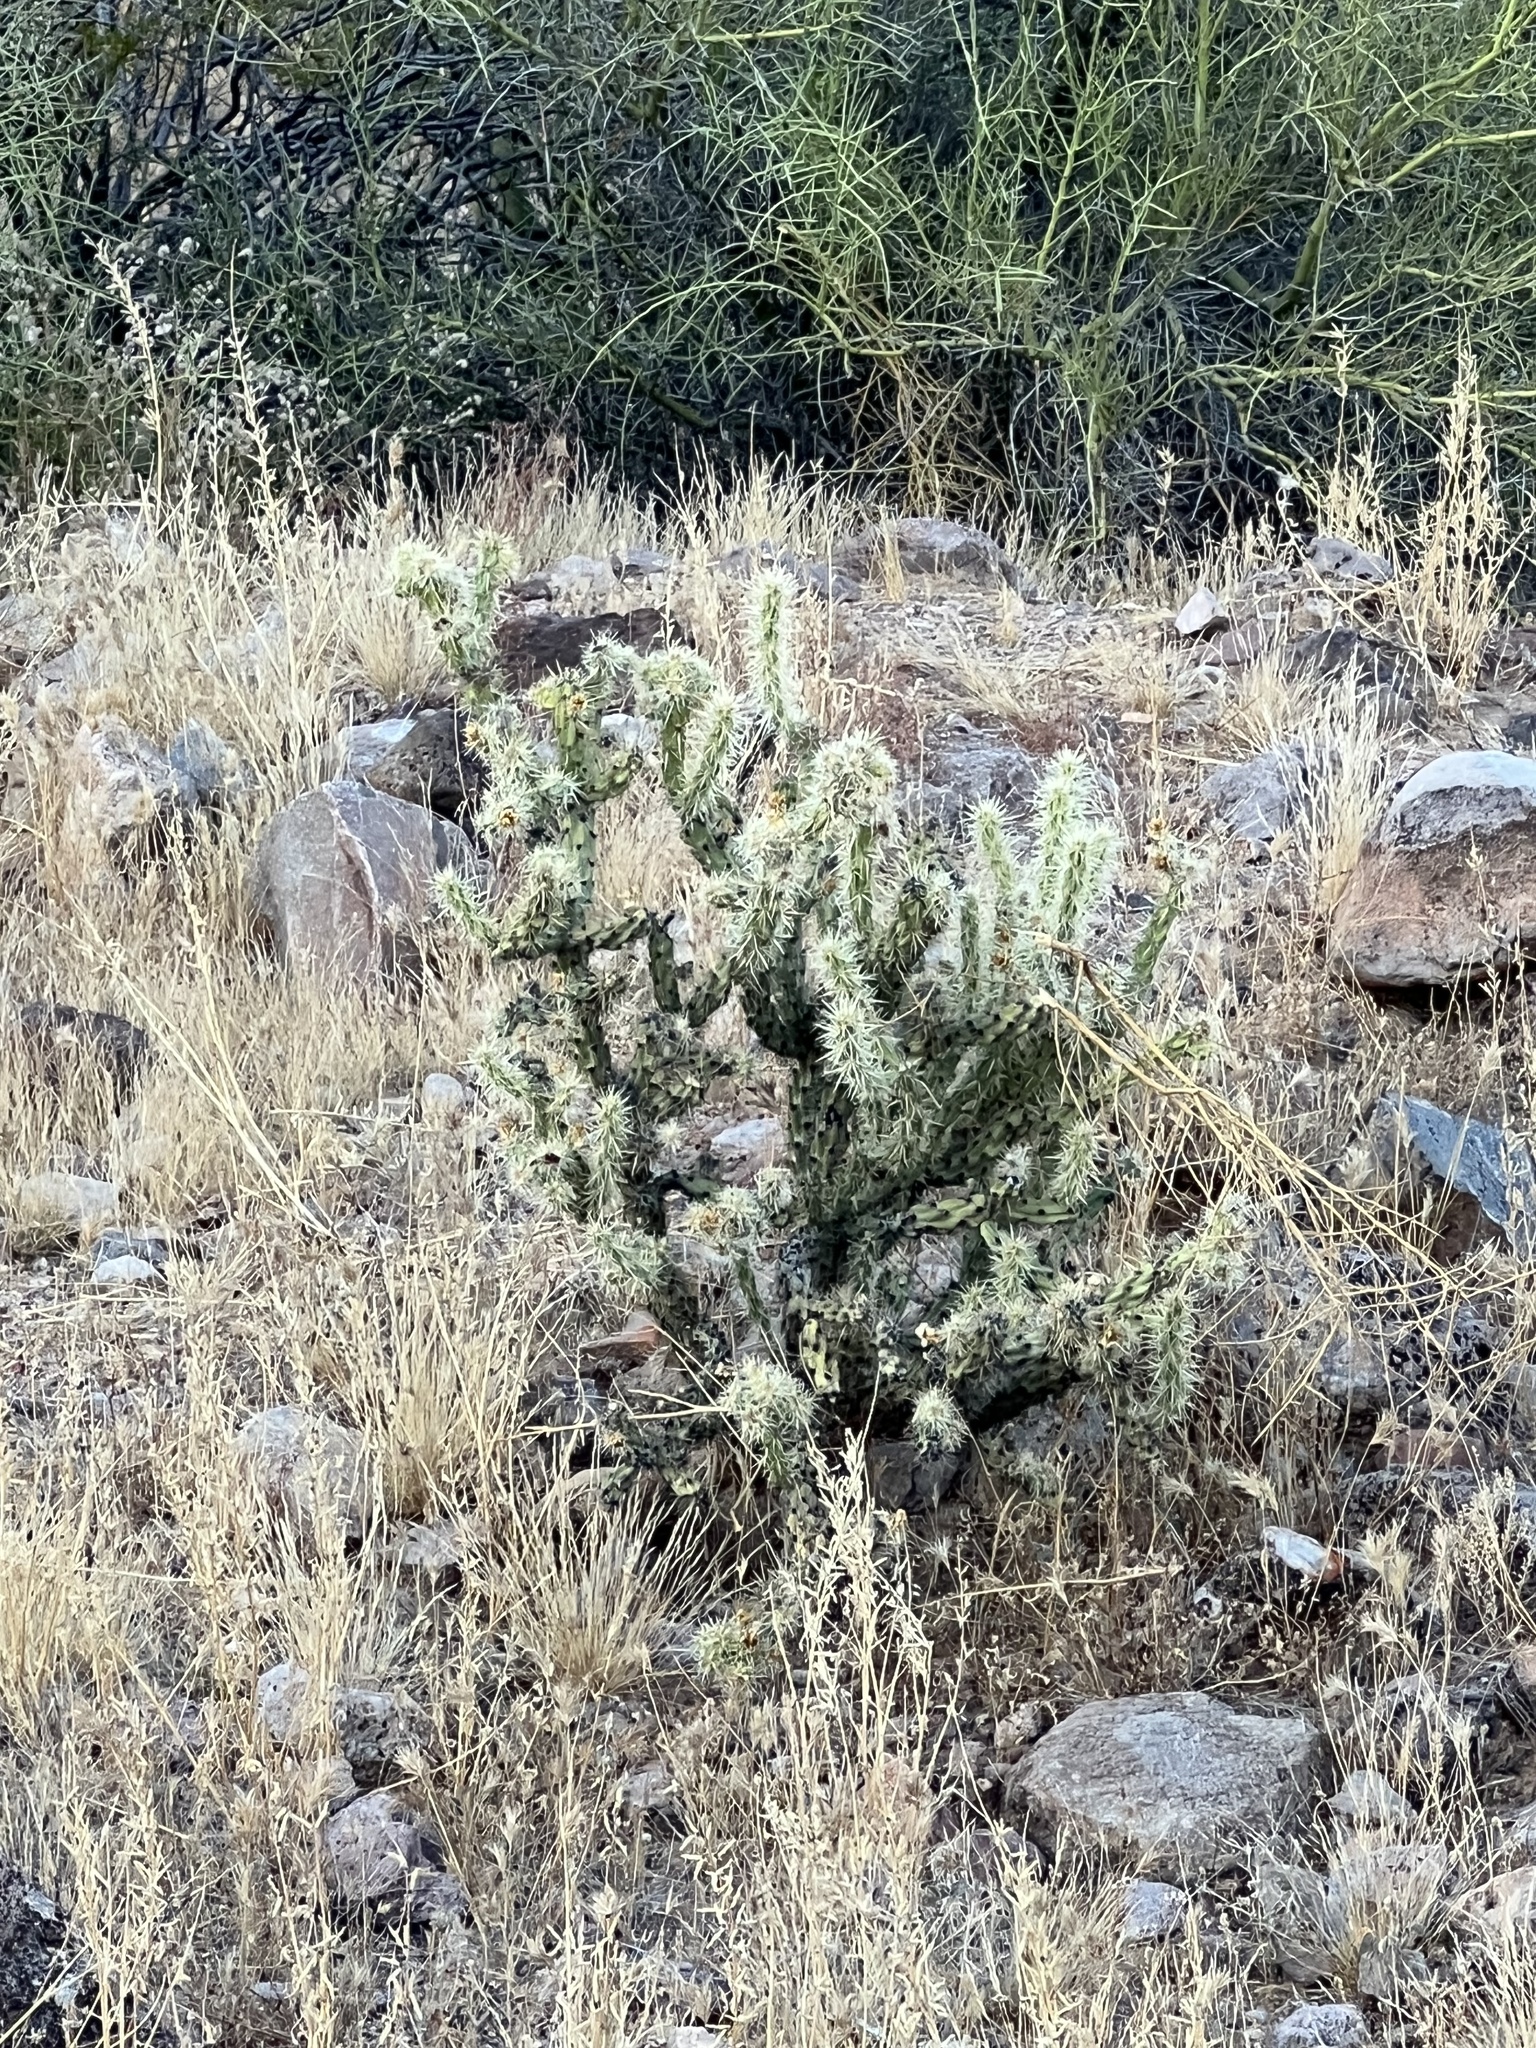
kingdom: Plantae
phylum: Tracheophyta
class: Magnoliopsida
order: Caryophyllales
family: Cactaceae
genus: Cylindropuntia
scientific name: Cylindropuntia acanthocarpa
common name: Buckhorn cholla
